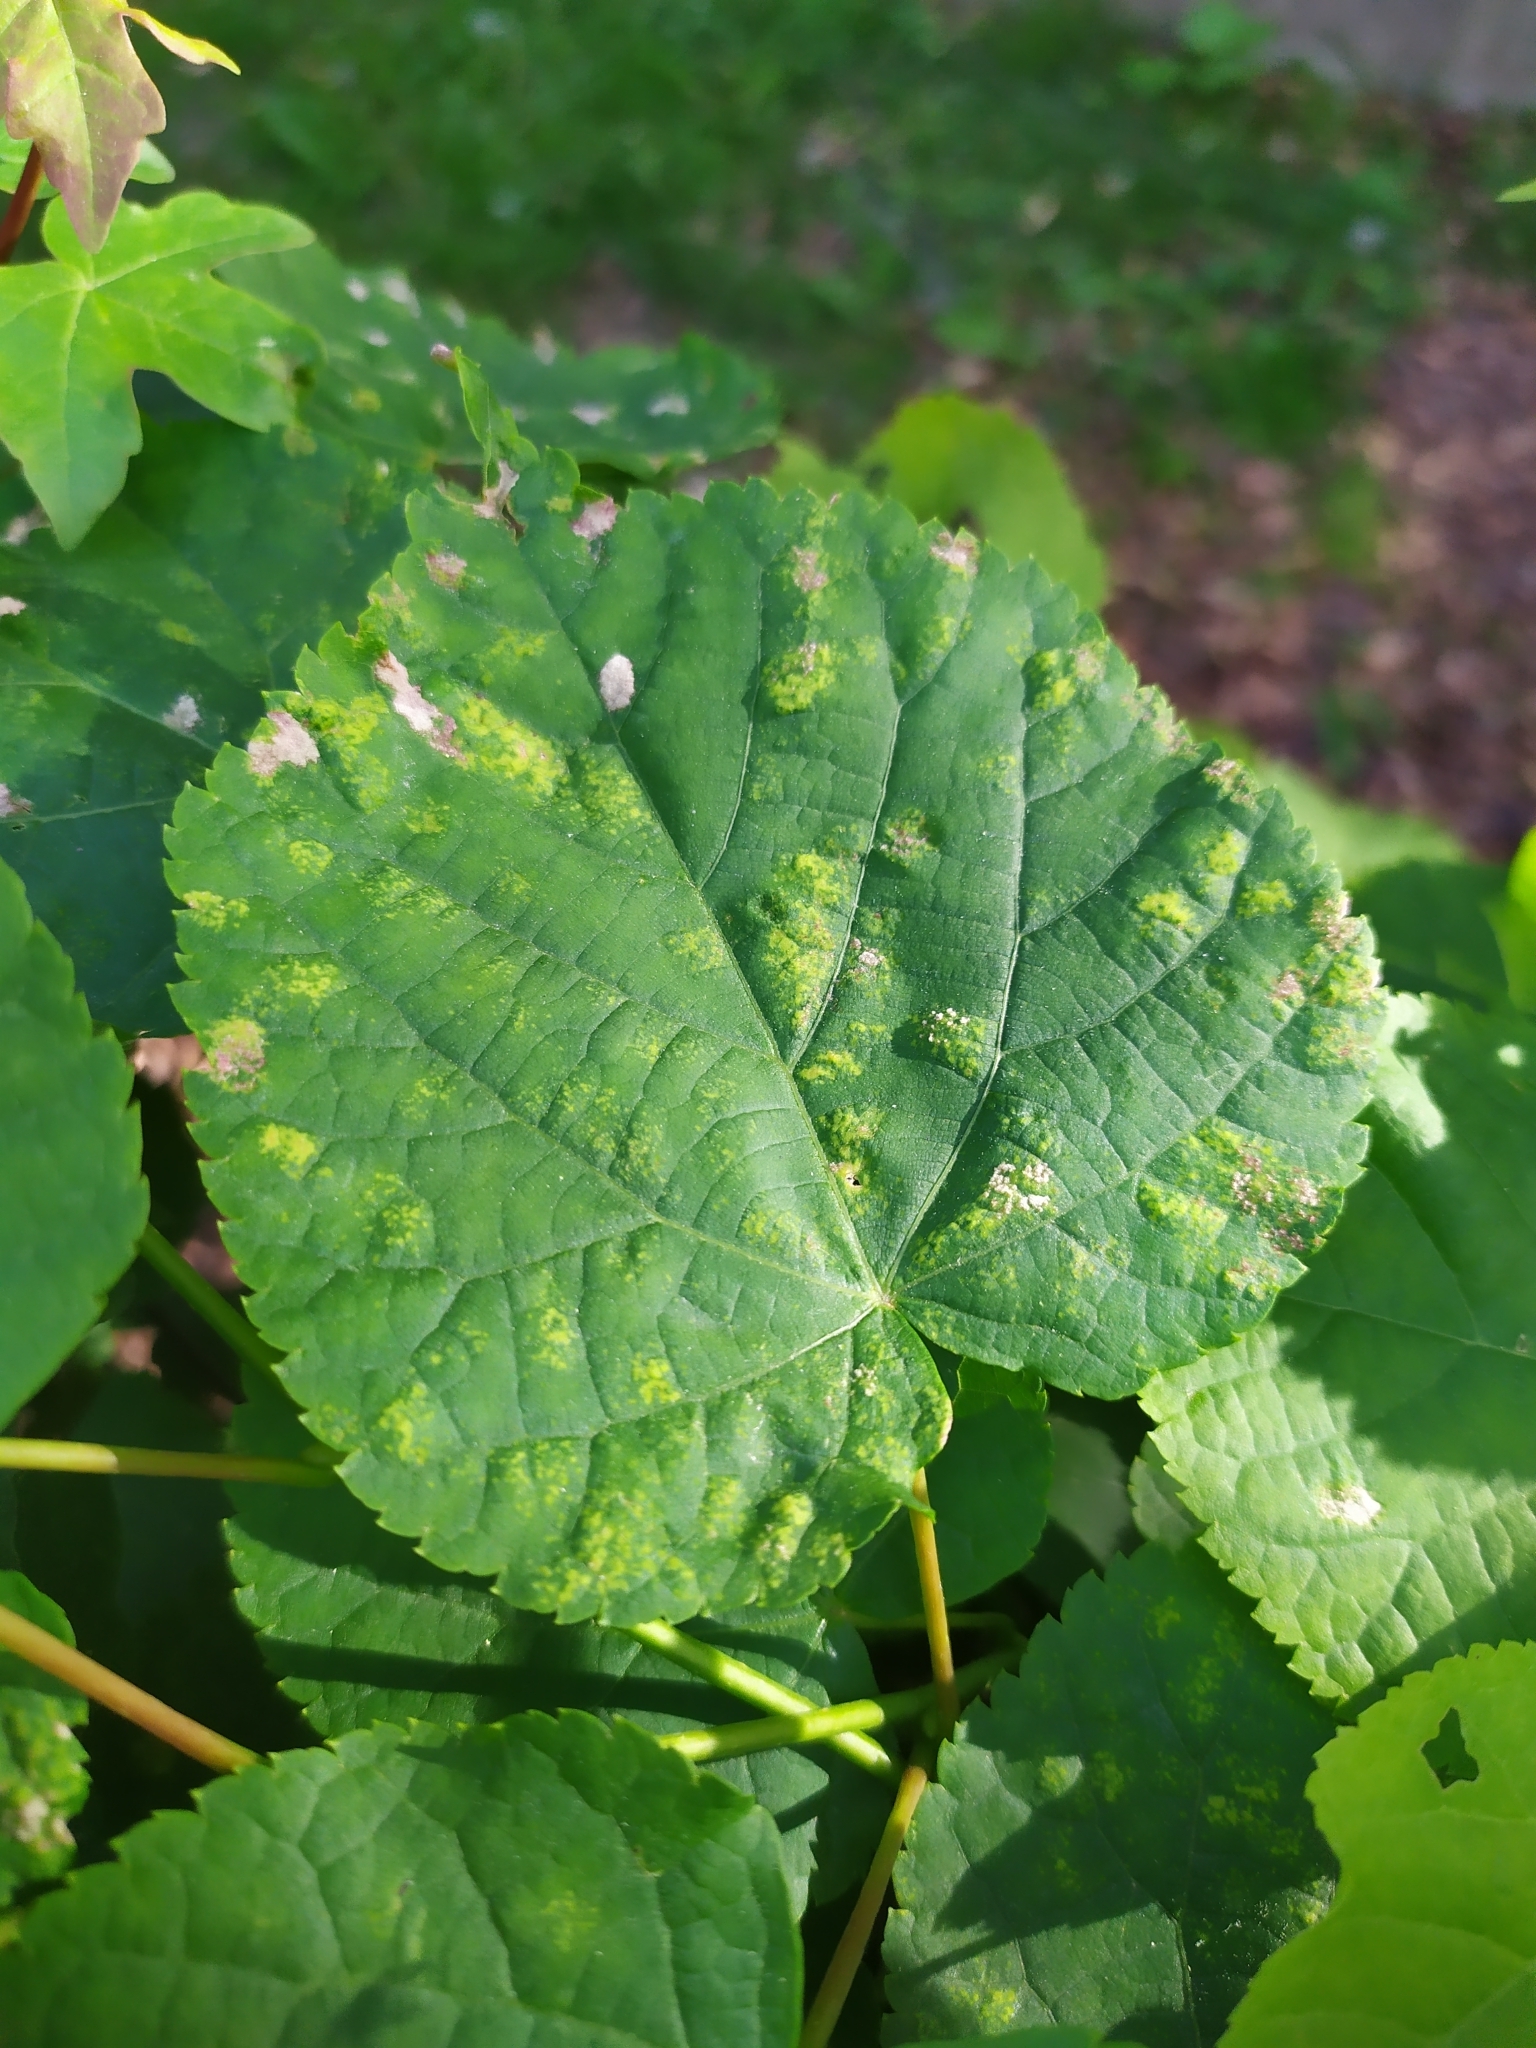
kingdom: Animalia
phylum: Arthropoda
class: Arachnida
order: Trombidiformes
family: Eriophyidae
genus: Eriophyes
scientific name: Eriophyes leiosoma
